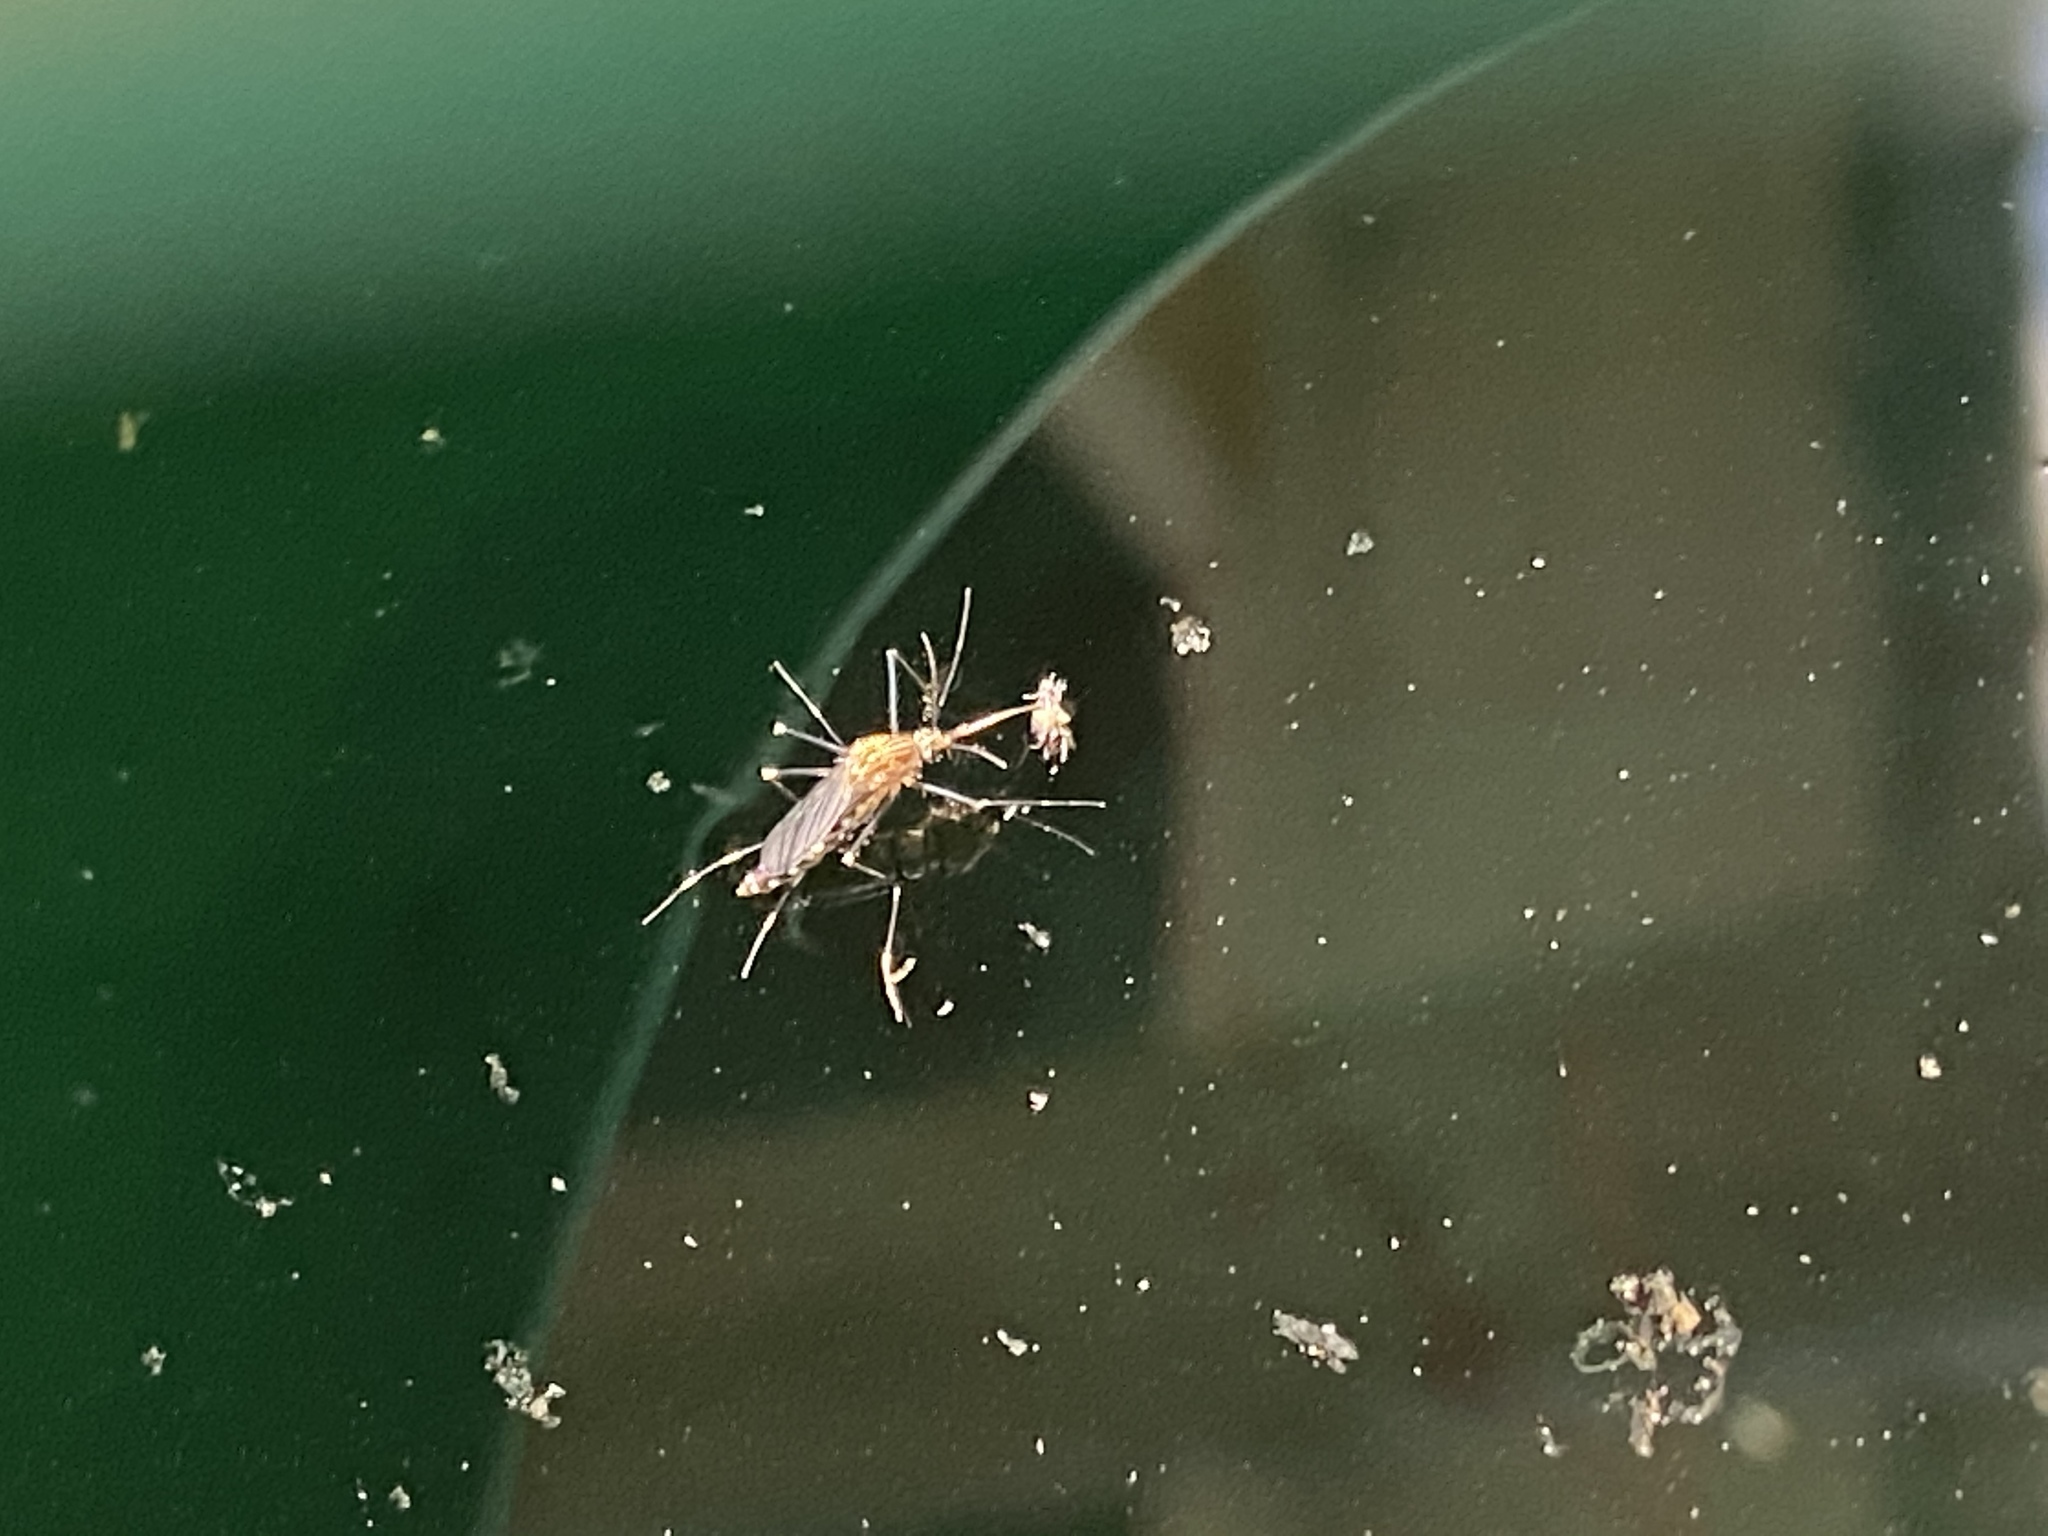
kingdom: Animalia
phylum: Arthropoda
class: Insecta
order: Diptera
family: Culicidae
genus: Aedes
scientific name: Aedes japonicus
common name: Asian bush mosquito
